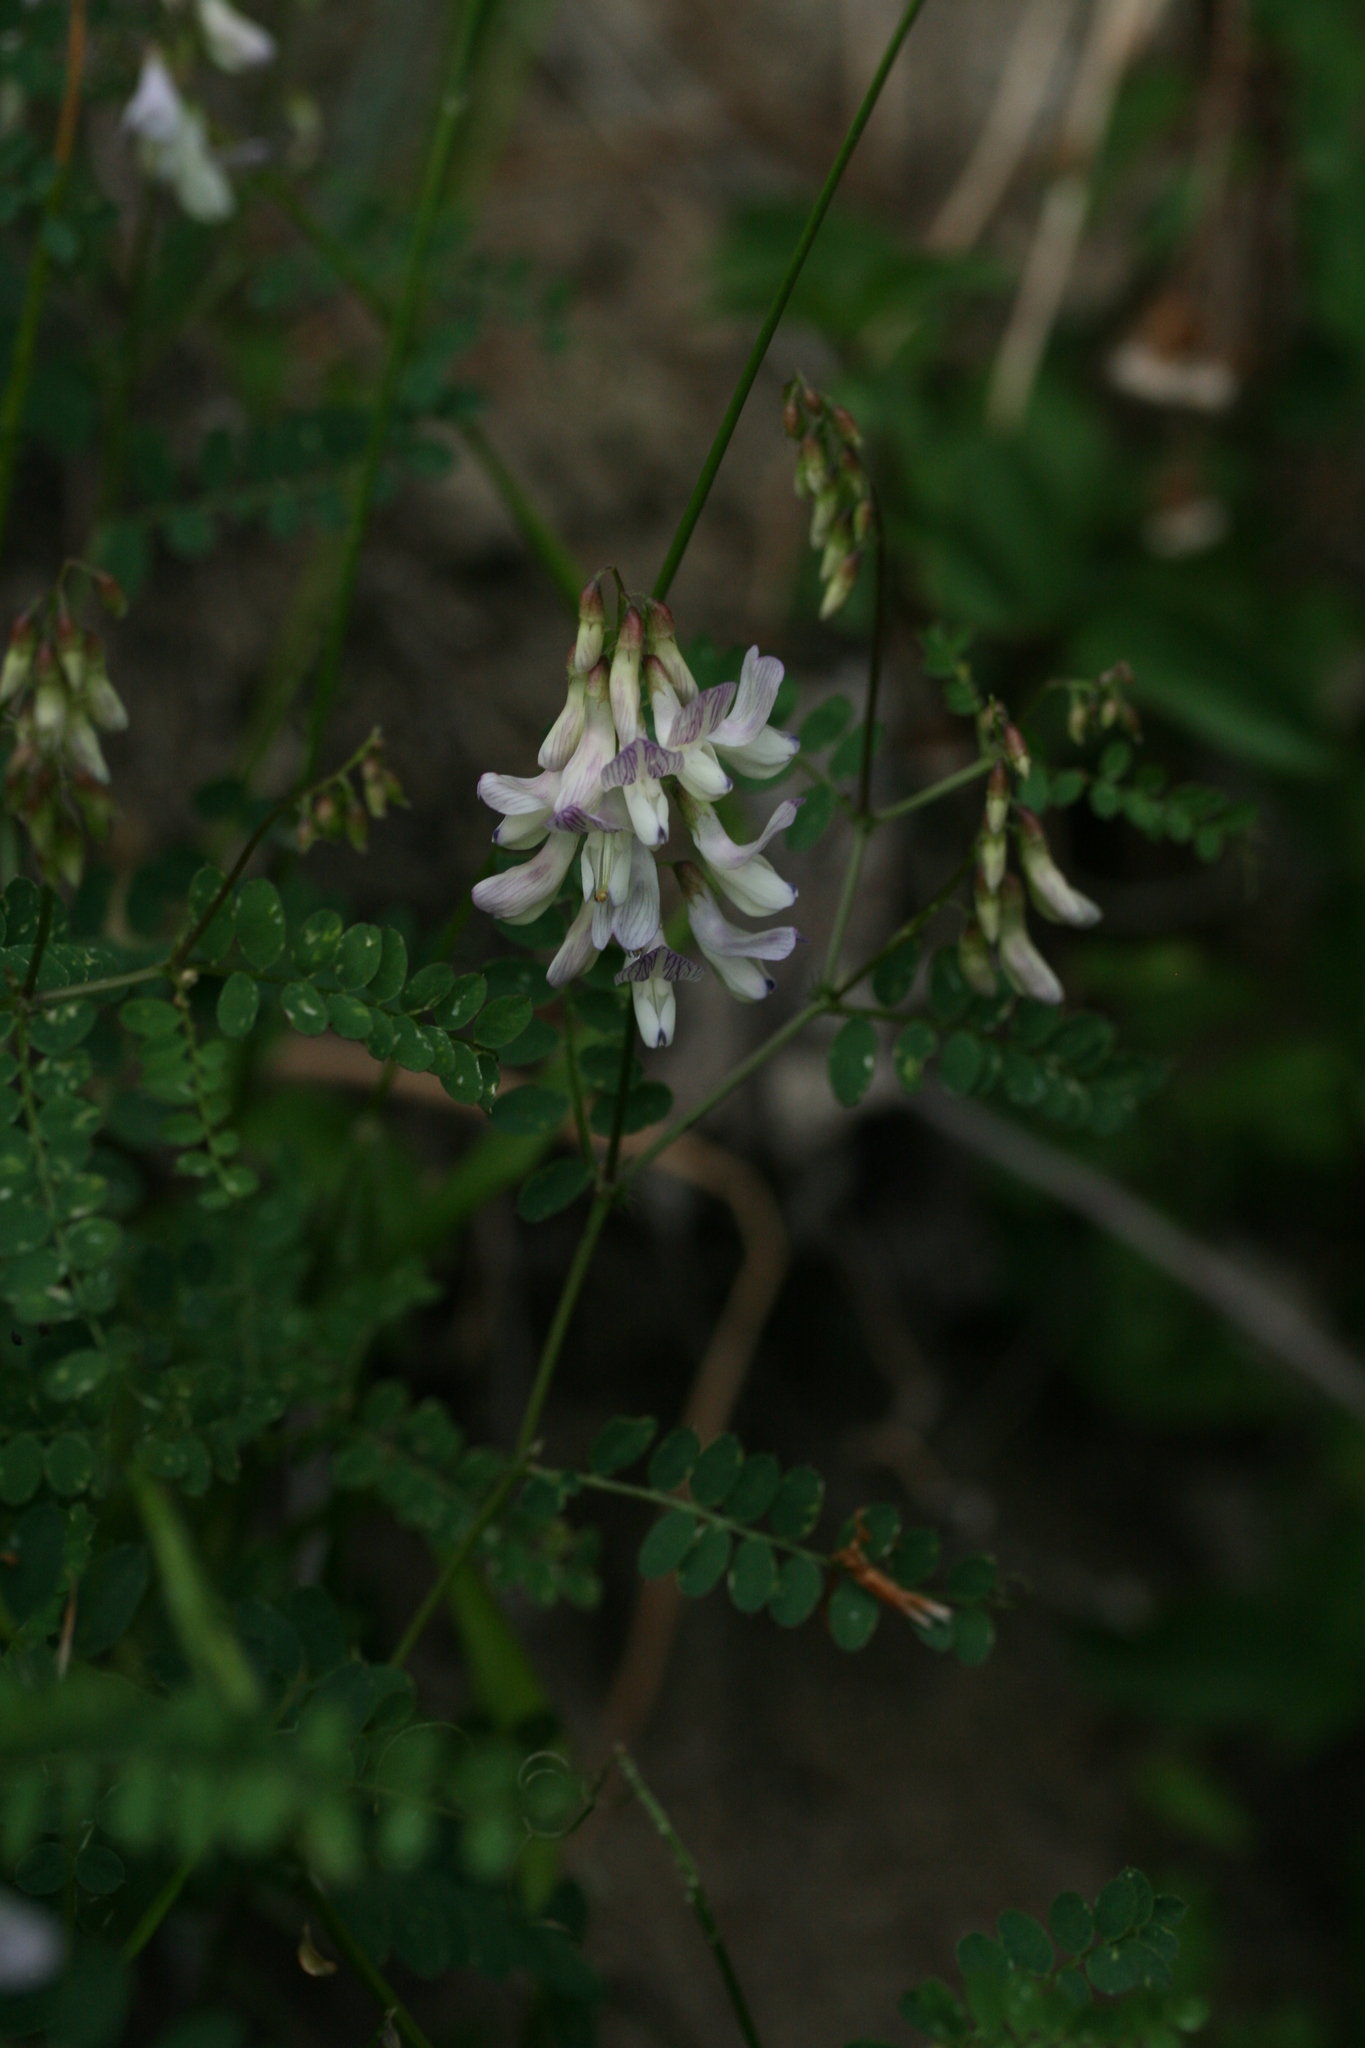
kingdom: Plantae
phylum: Tracheophyta
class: Magnoliopsida
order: Fabales
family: Fabaceae
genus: Vicia
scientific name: Vicia sylvatica
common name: Wood vetch
